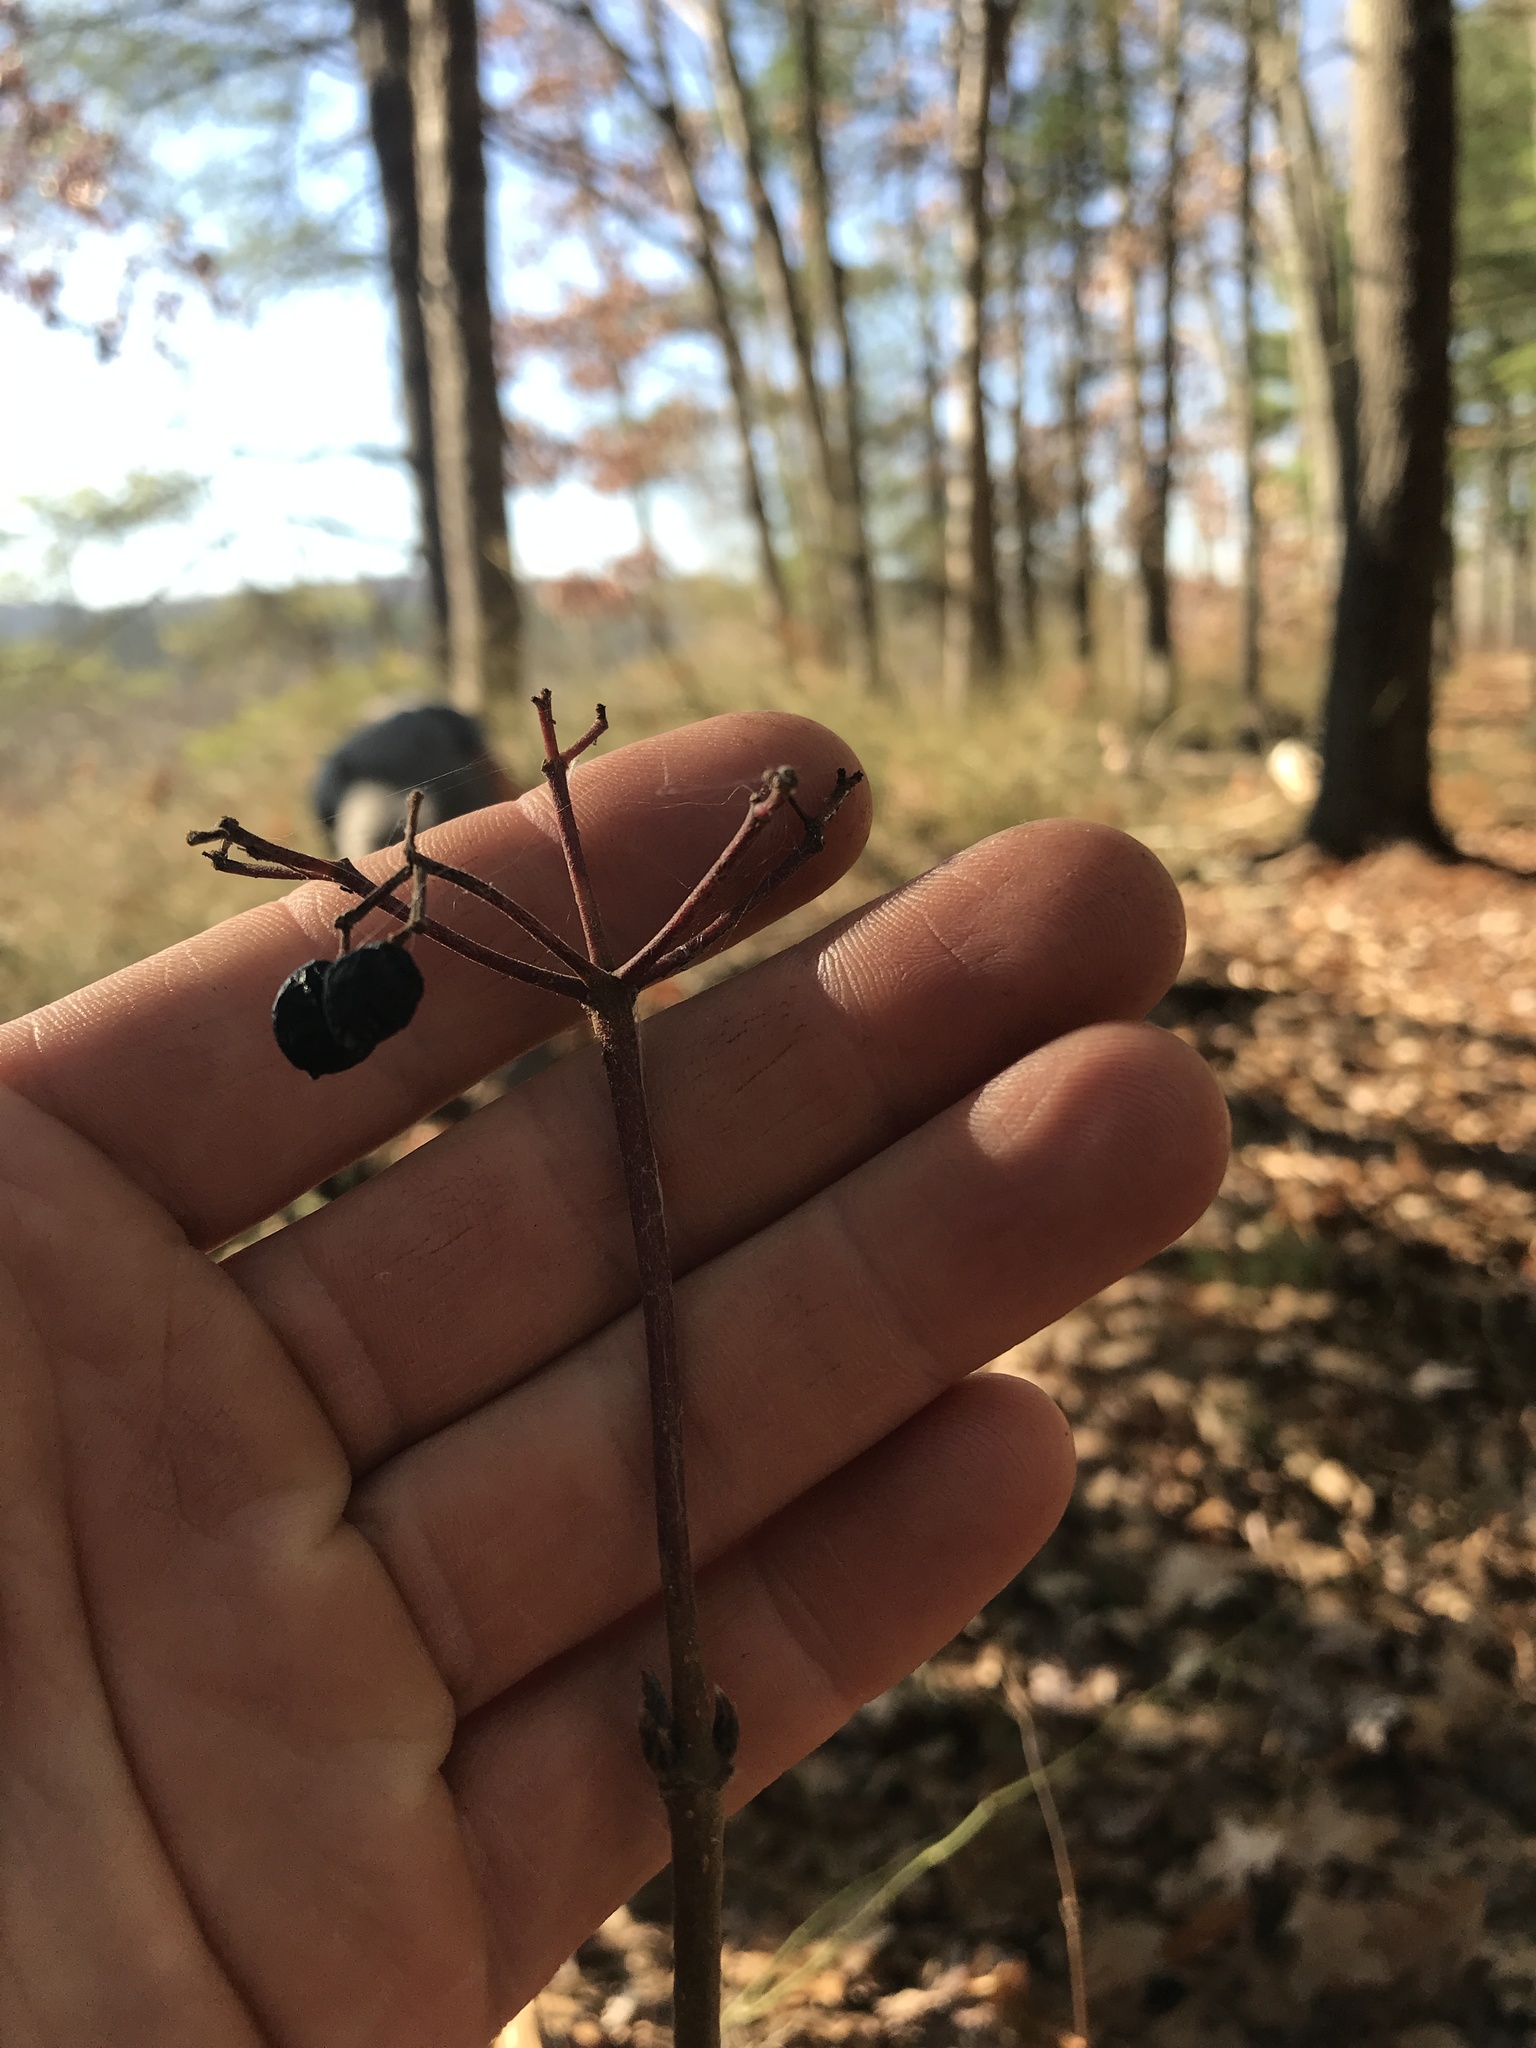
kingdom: Plantae
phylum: Tracheophyta
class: Magnoliopsida
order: Dipsacales
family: Viburnaceae
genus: Viburnum
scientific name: Viburnum acerifolium
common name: Dockmackie
